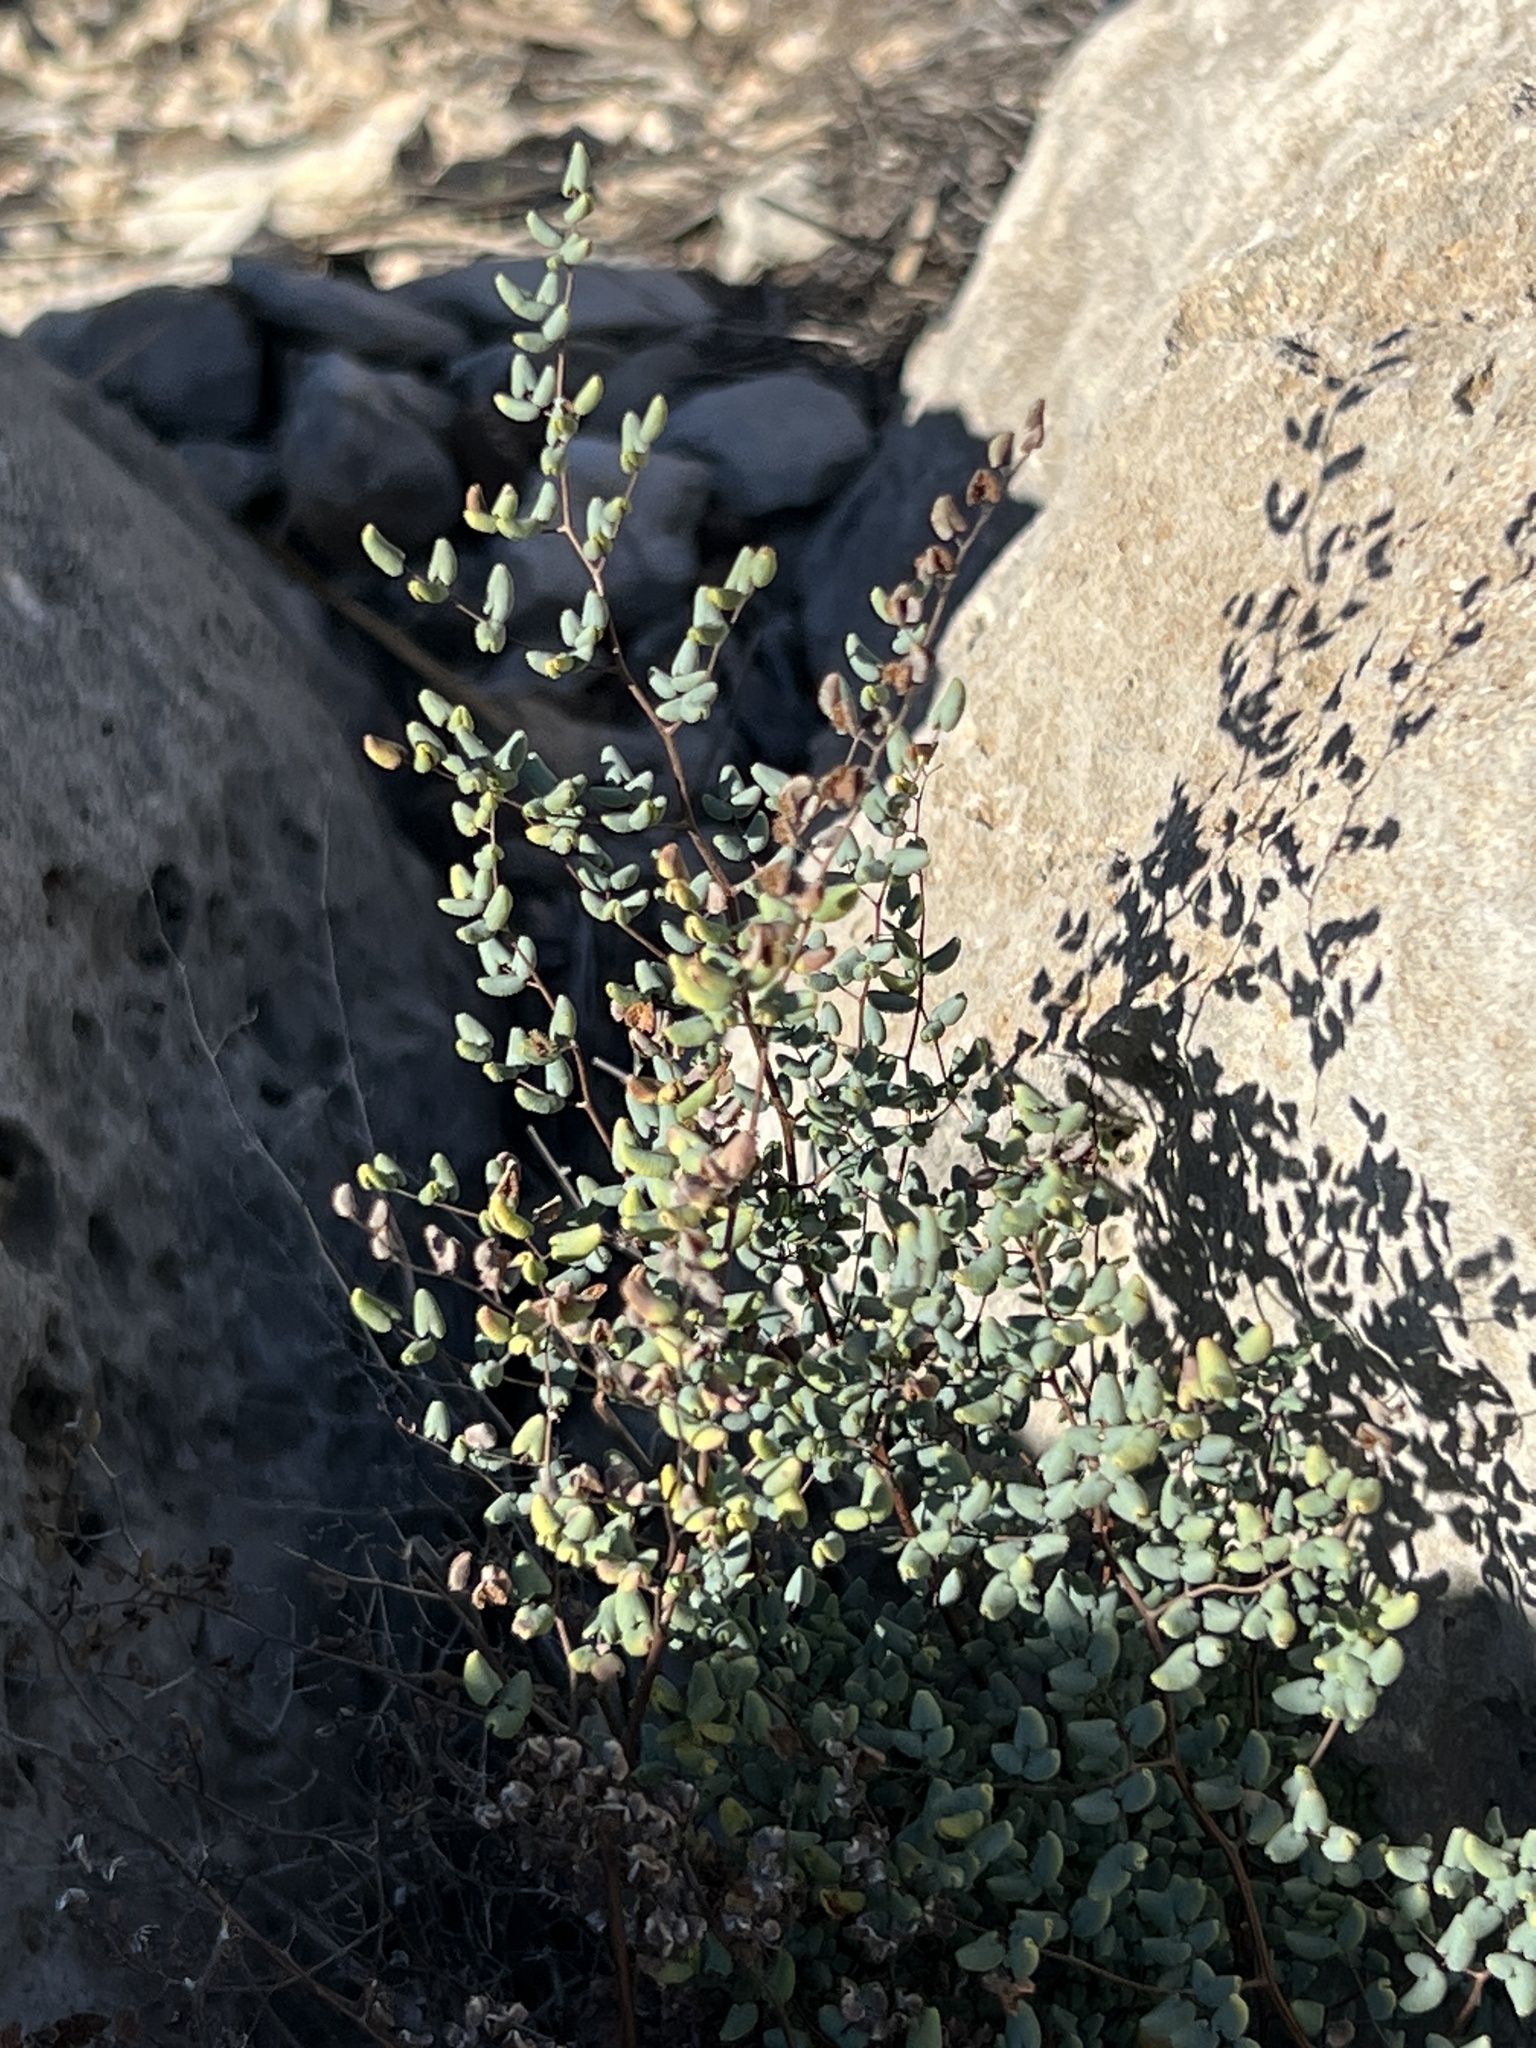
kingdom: Plantae
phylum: Tracheophyta
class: Polypodiopsida
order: Polypodiales
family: Pteridaceae
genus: Argyrochosma
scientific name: Argyrochosma microphylla
